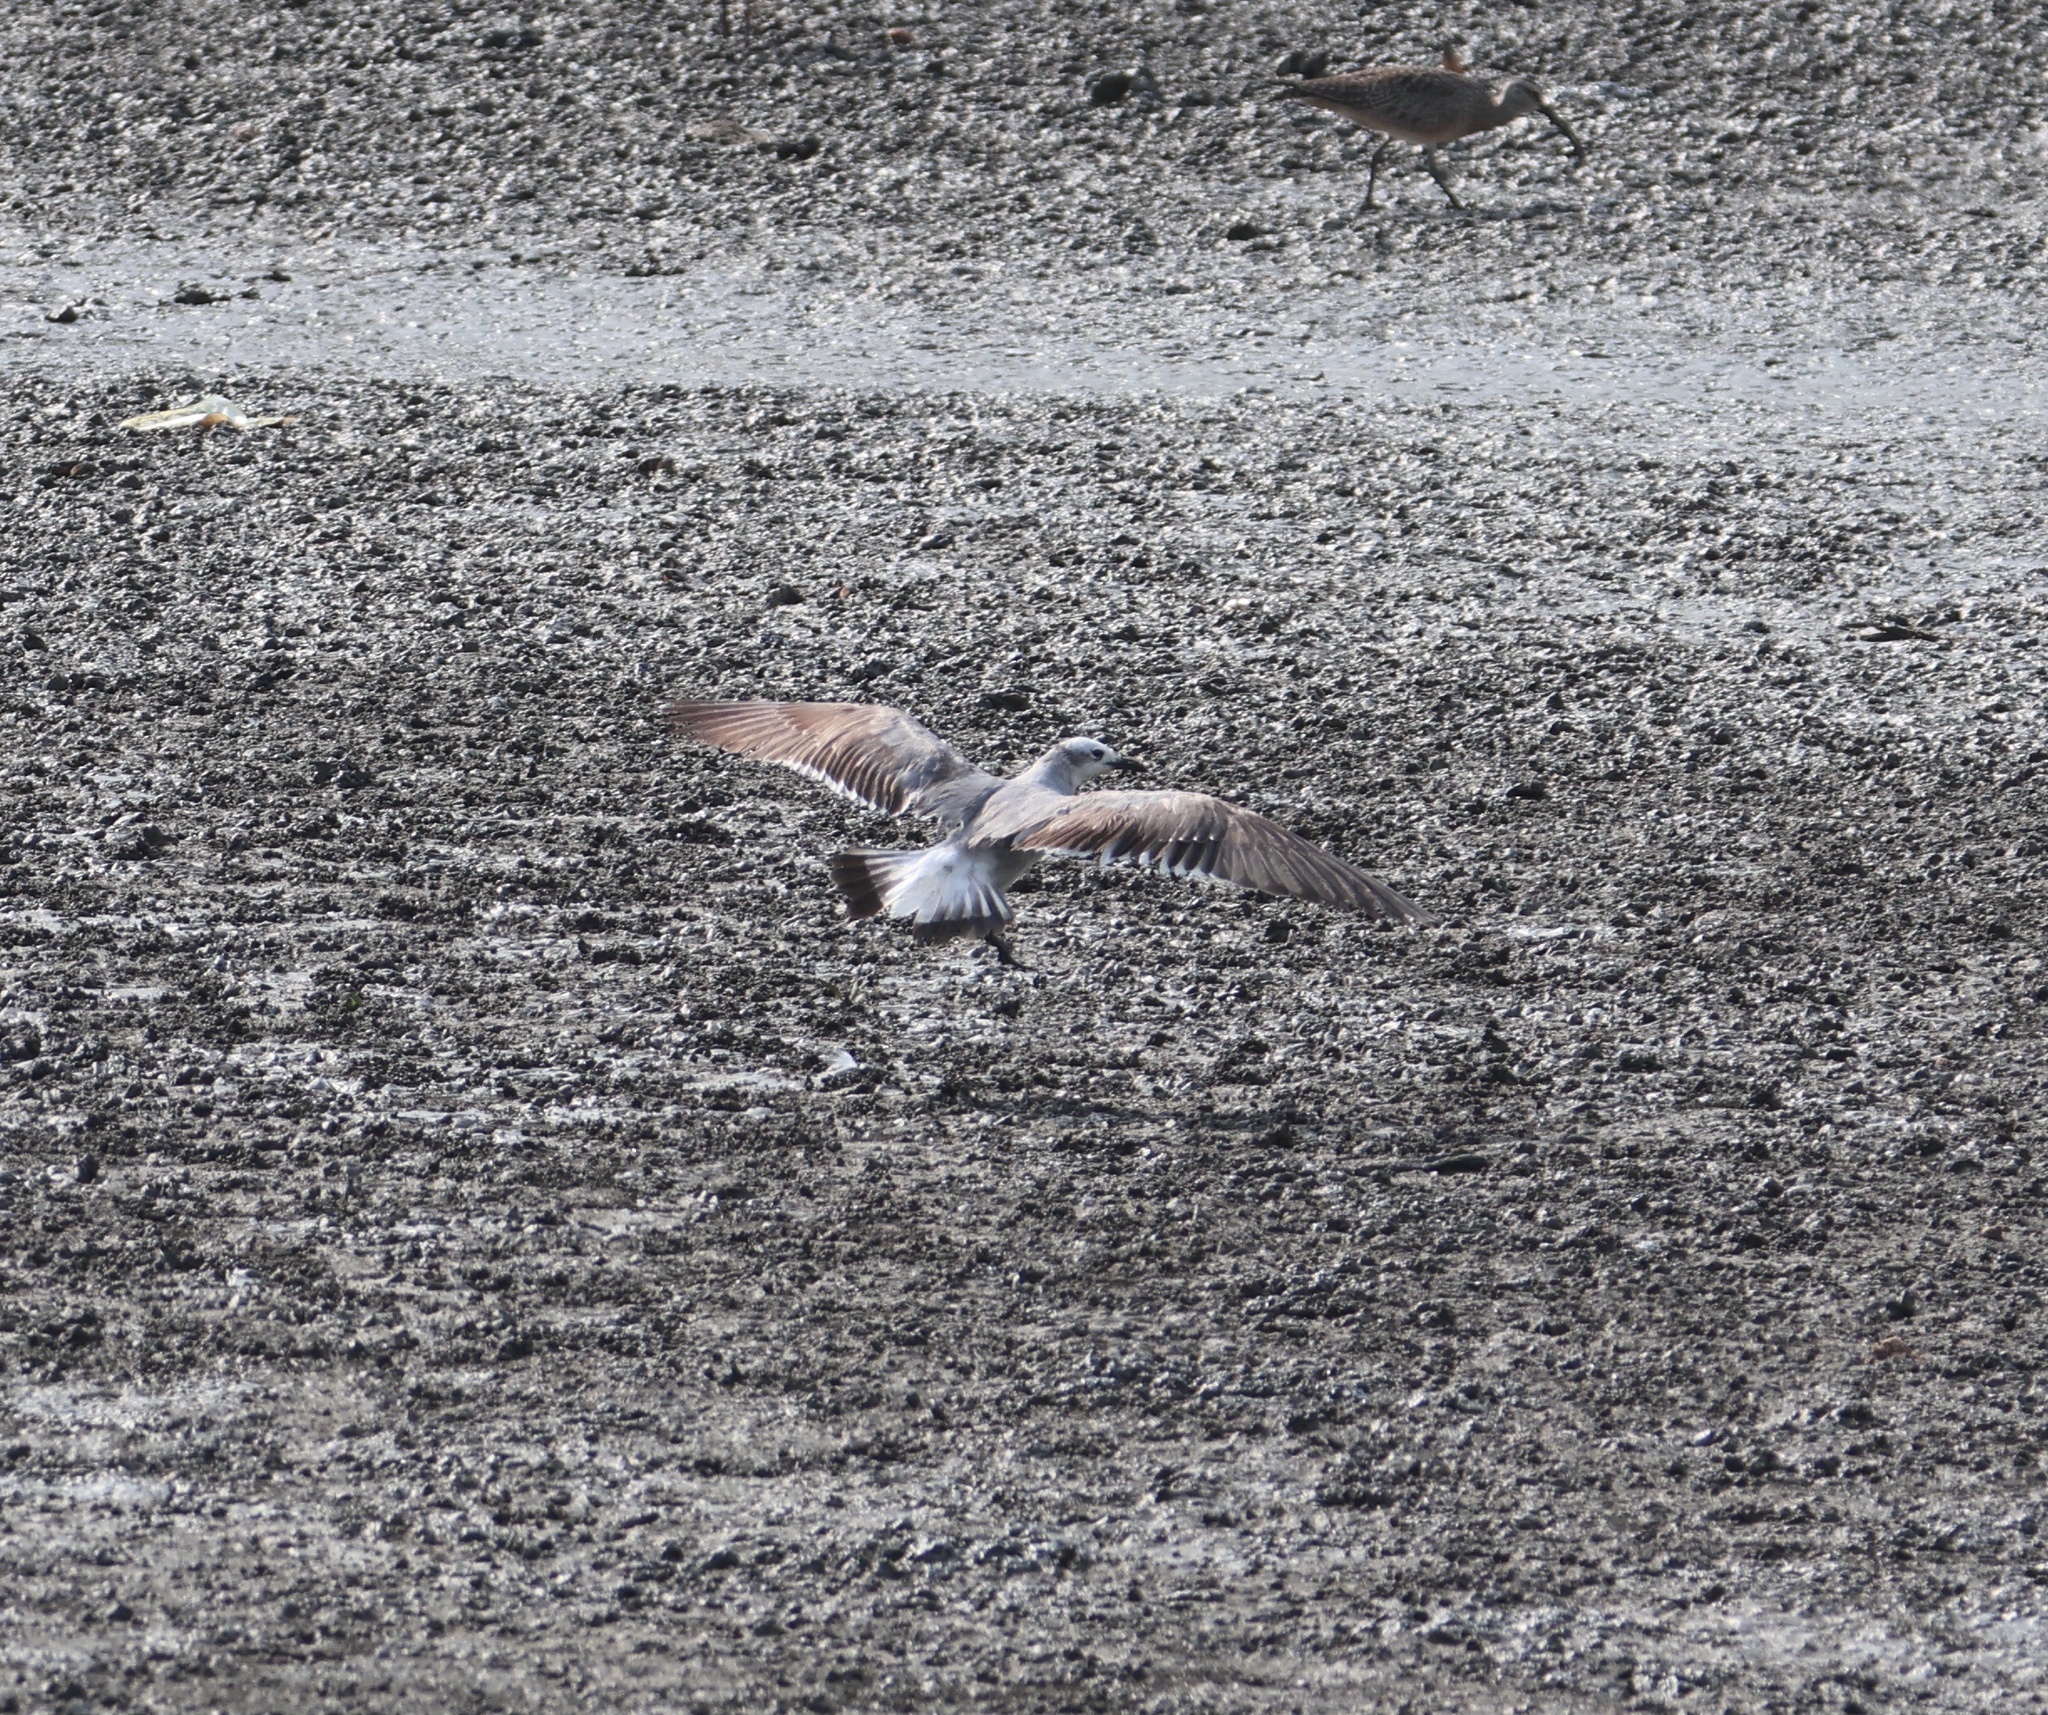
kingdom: Animalia
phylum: Chordata
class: Aves
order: Charadriiformes
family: Laridae
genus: Leucophaeus
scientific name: Leucophaeus atricilla
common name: Laughing gull
